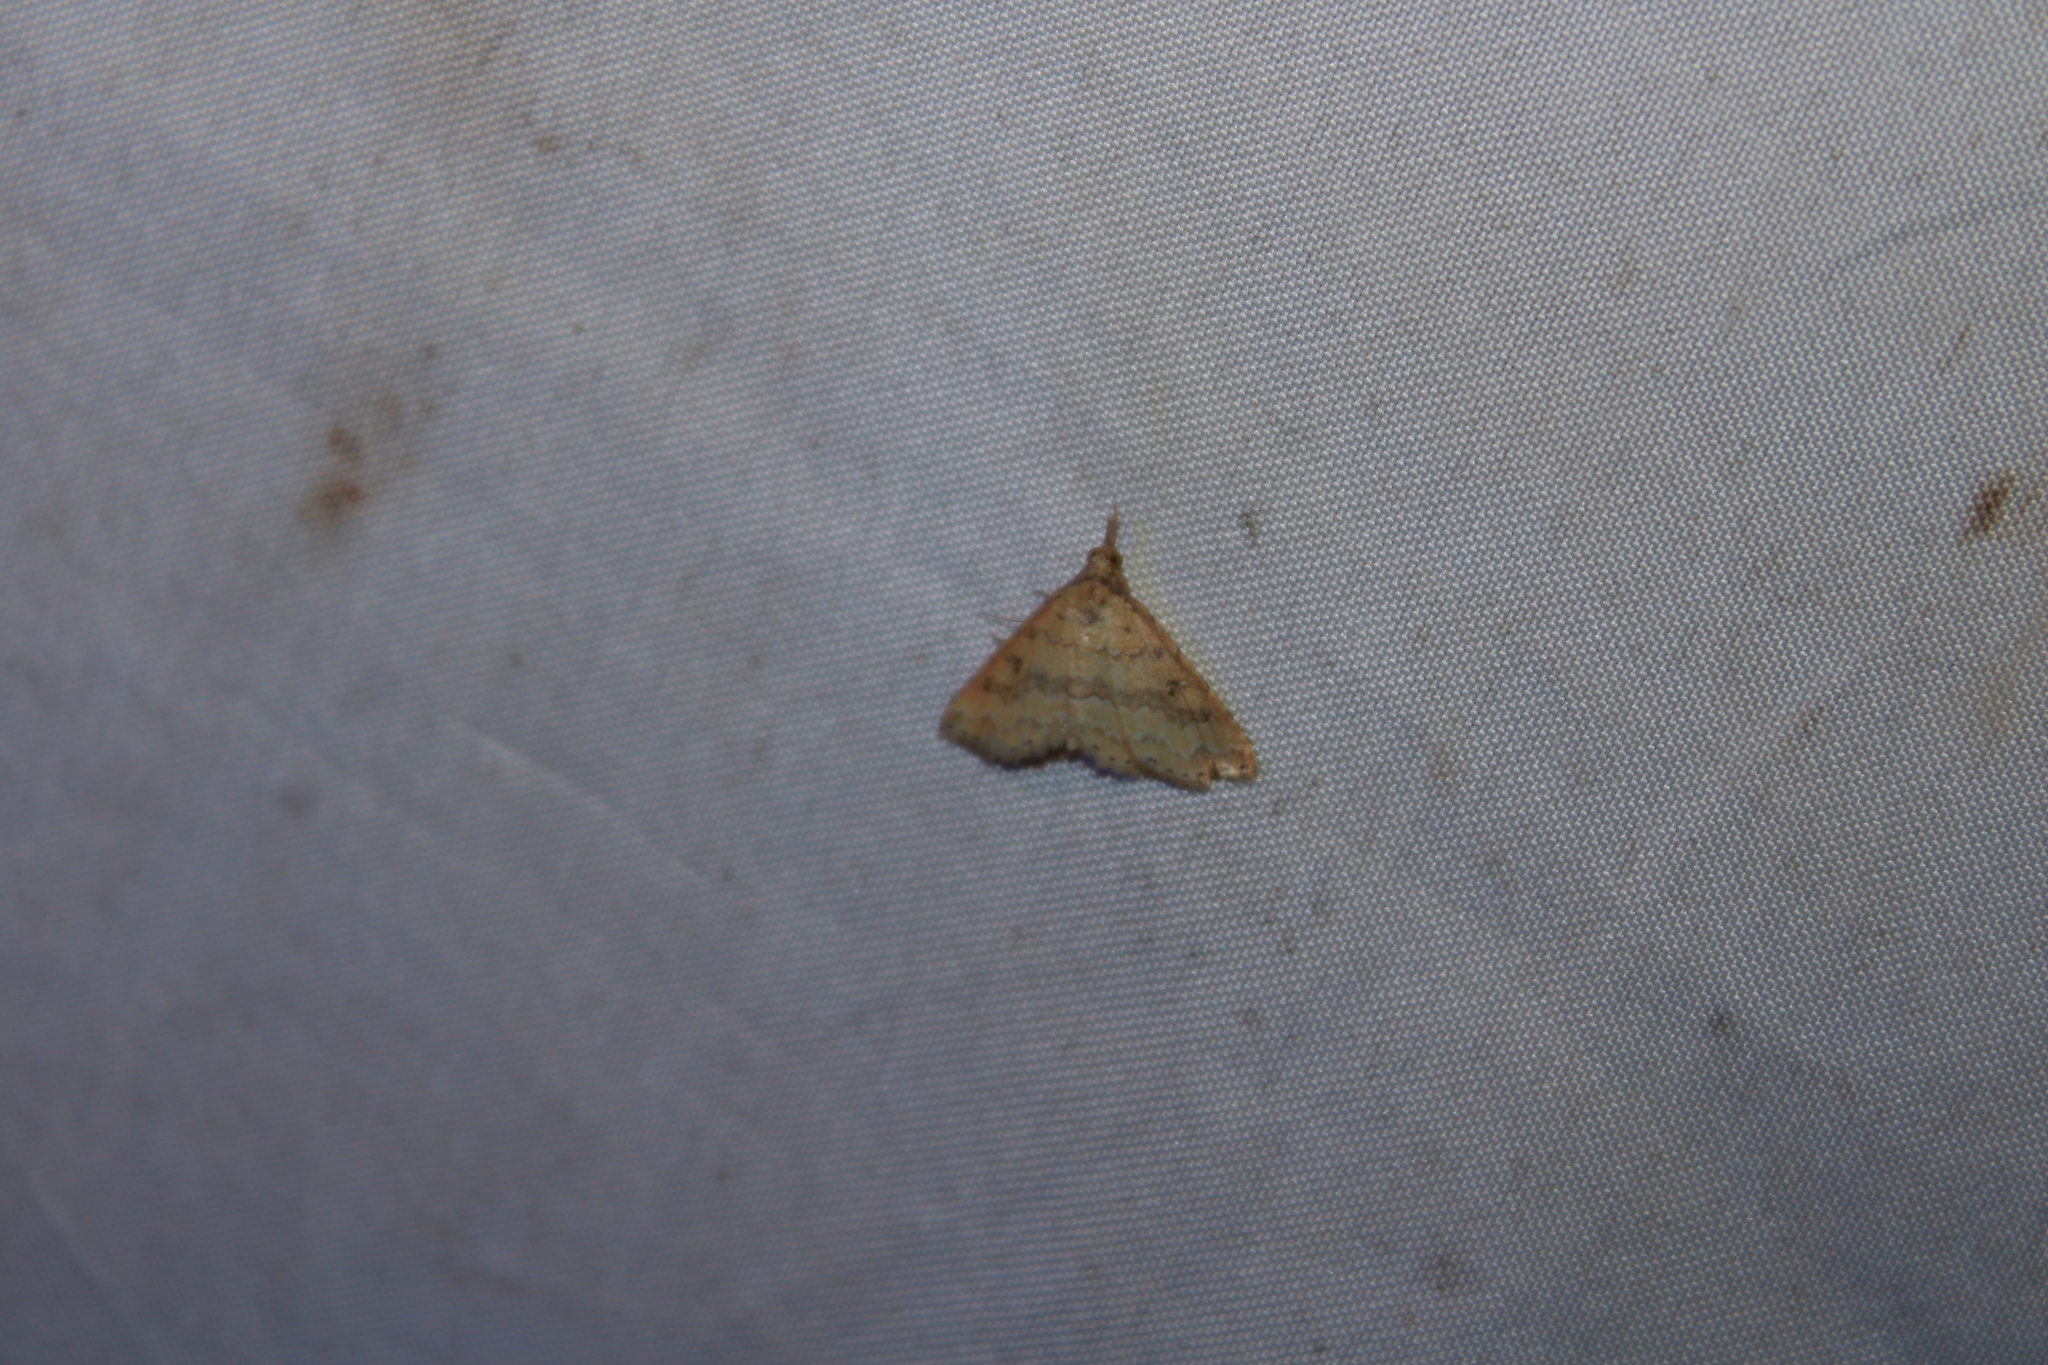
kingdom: Animalia
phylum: Arthropoda
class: Insecta
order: Lepidoptera
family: Erebidae
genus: Mursa
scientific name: Mursa phtisialis
